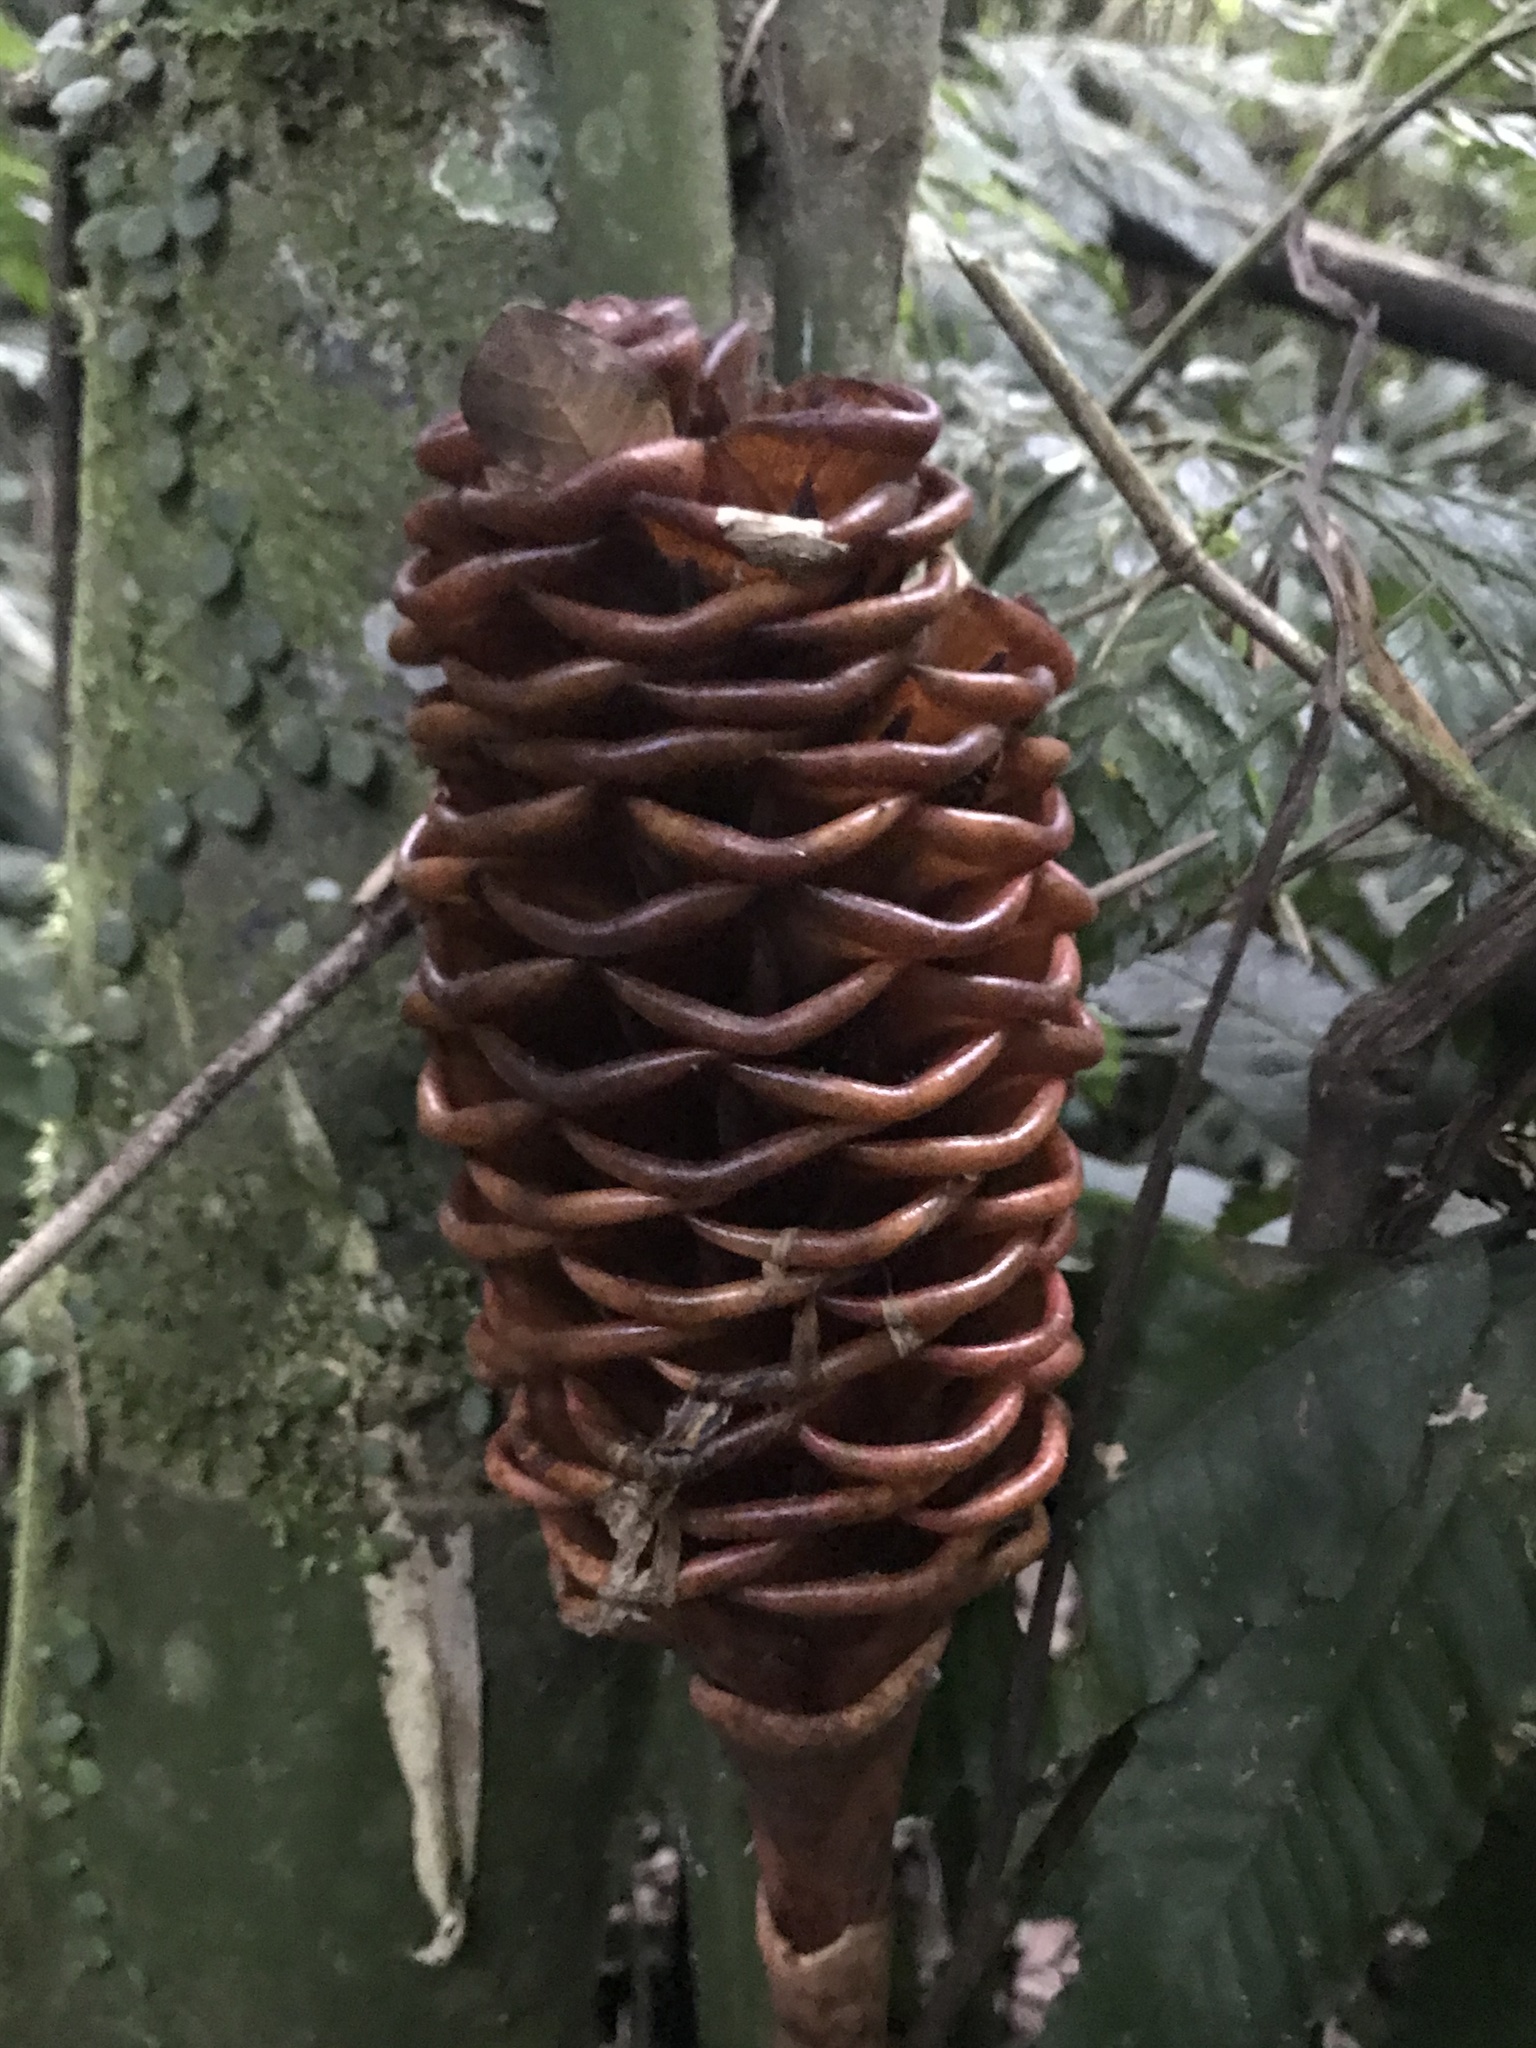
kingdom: Plantae
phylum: Tracheophyta
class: Liliopsida
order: Zingiberales
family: Zingiberaceae
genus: Zingiber
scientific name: Zingiber spectabile
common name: Beehive ginger
